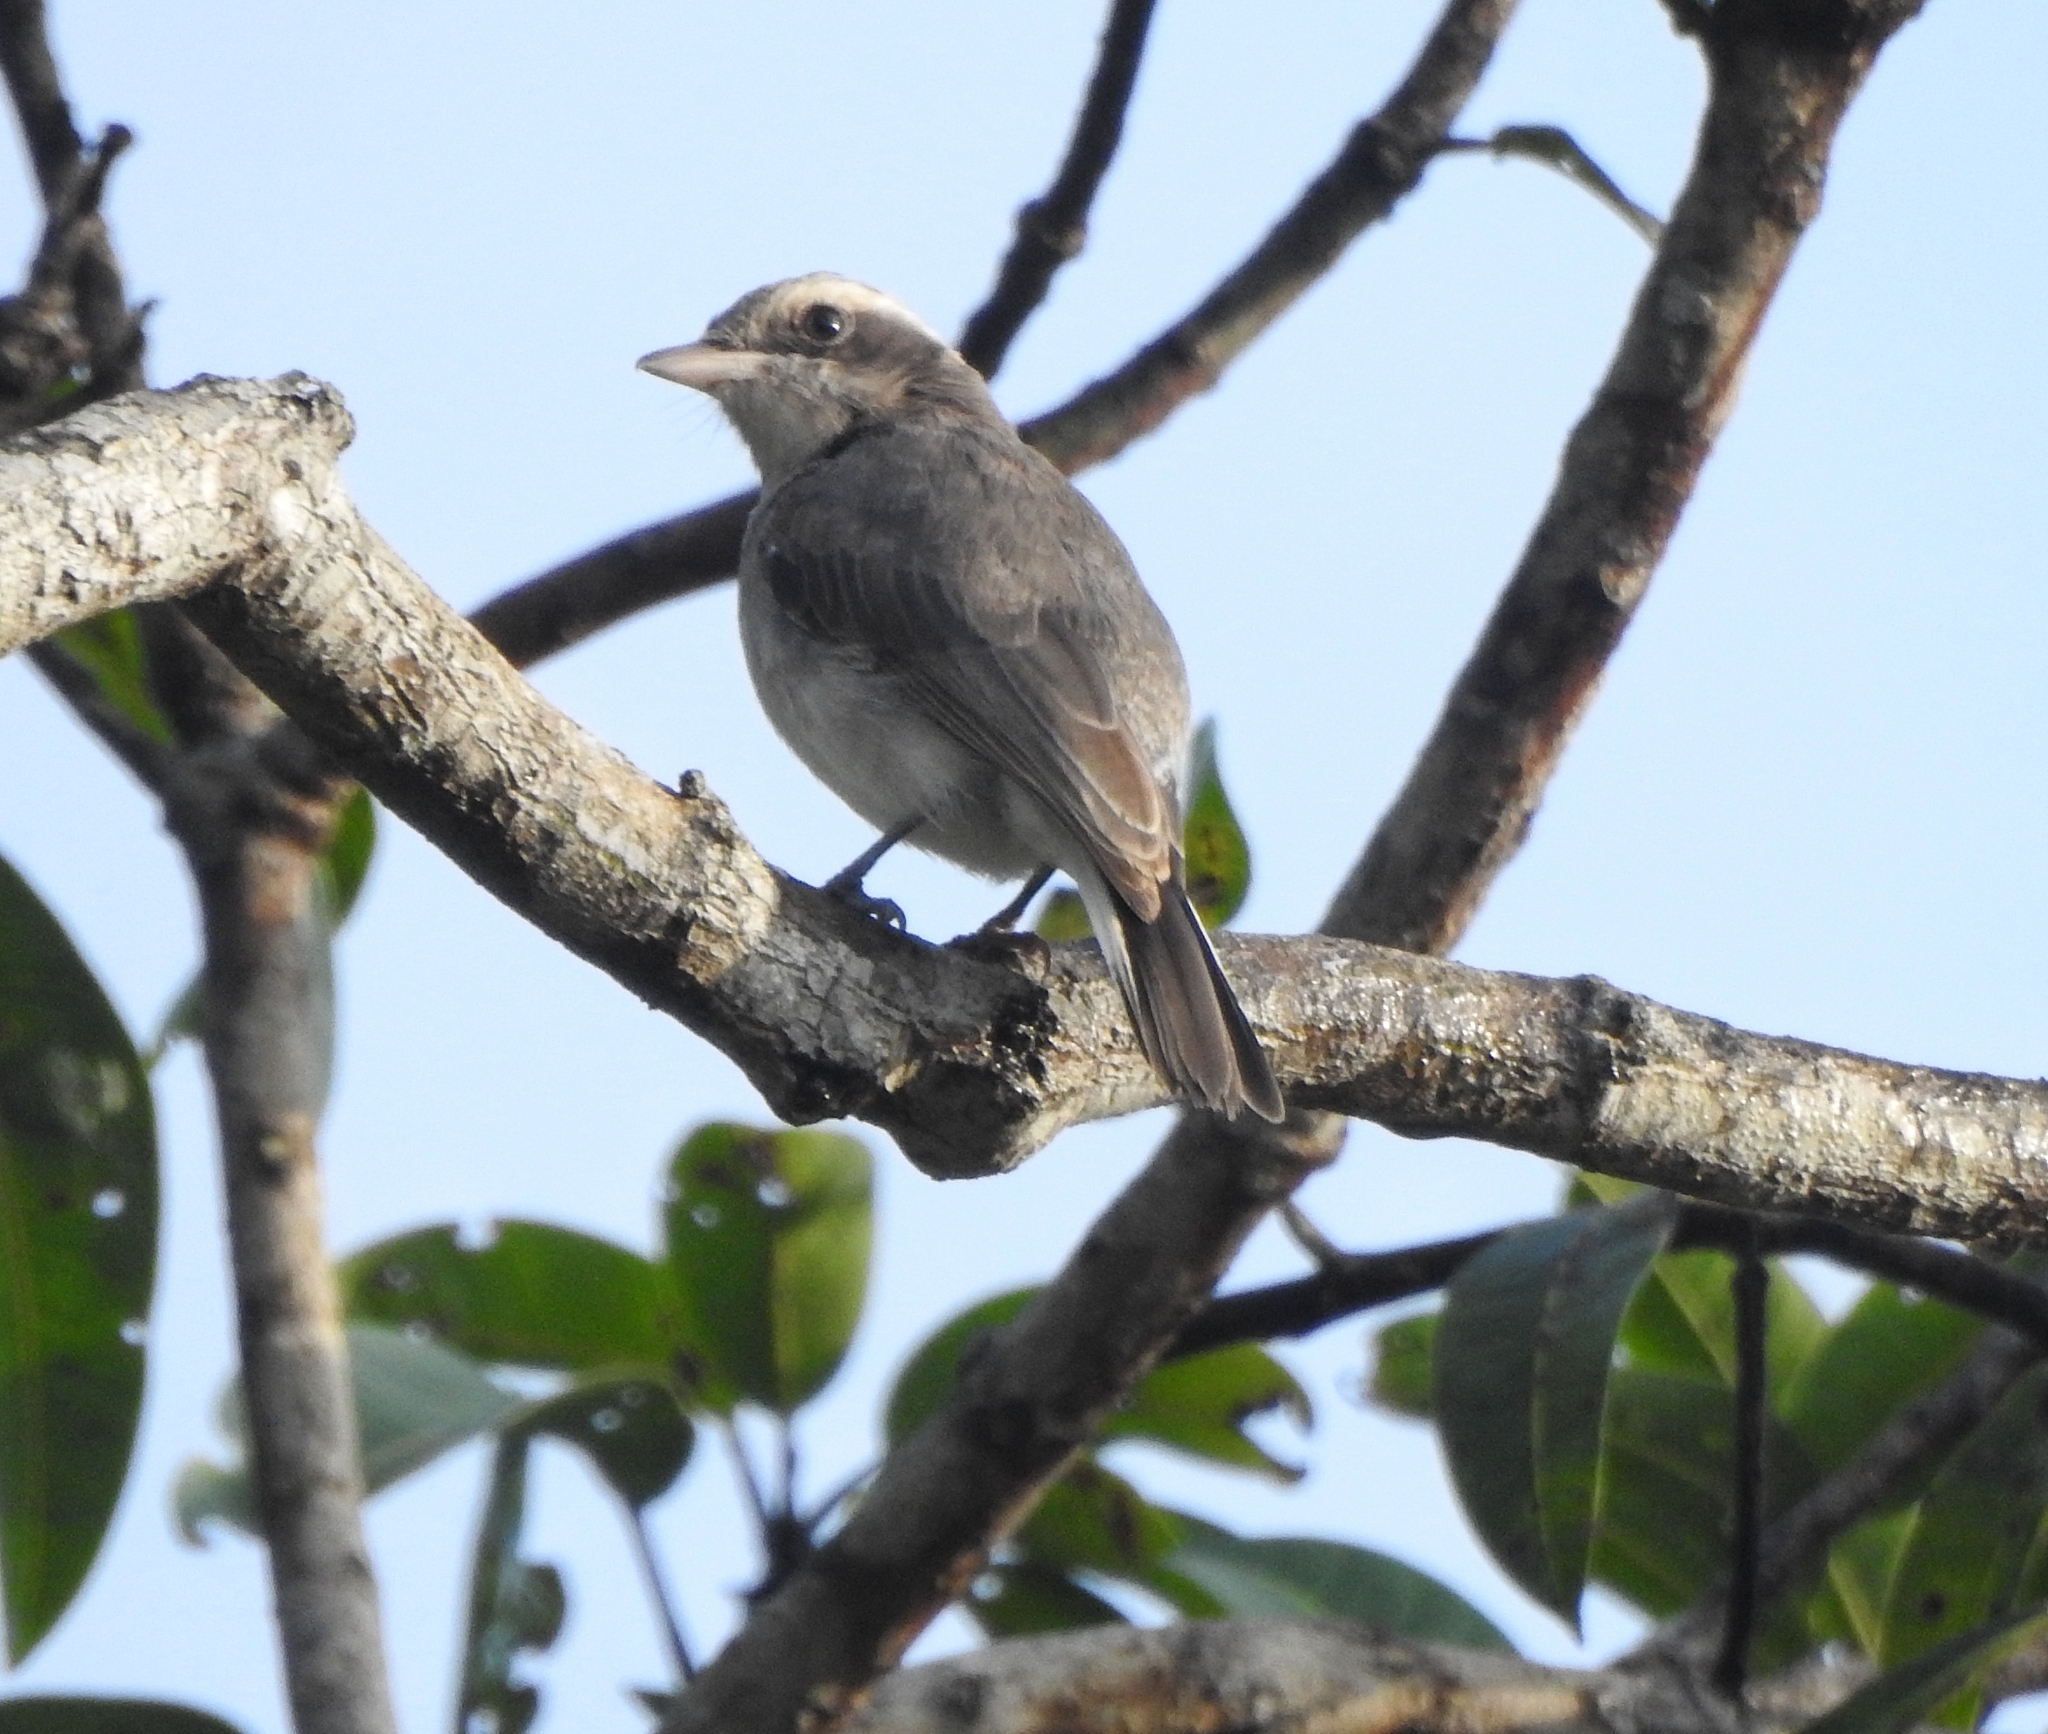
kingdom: Animalia
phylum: Chordata
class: Aves
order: Passeriformes
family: Tephrodornithidae
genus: Tephrodornis
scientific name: Tephrodornis pondicerianus
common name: Common woodshrike
